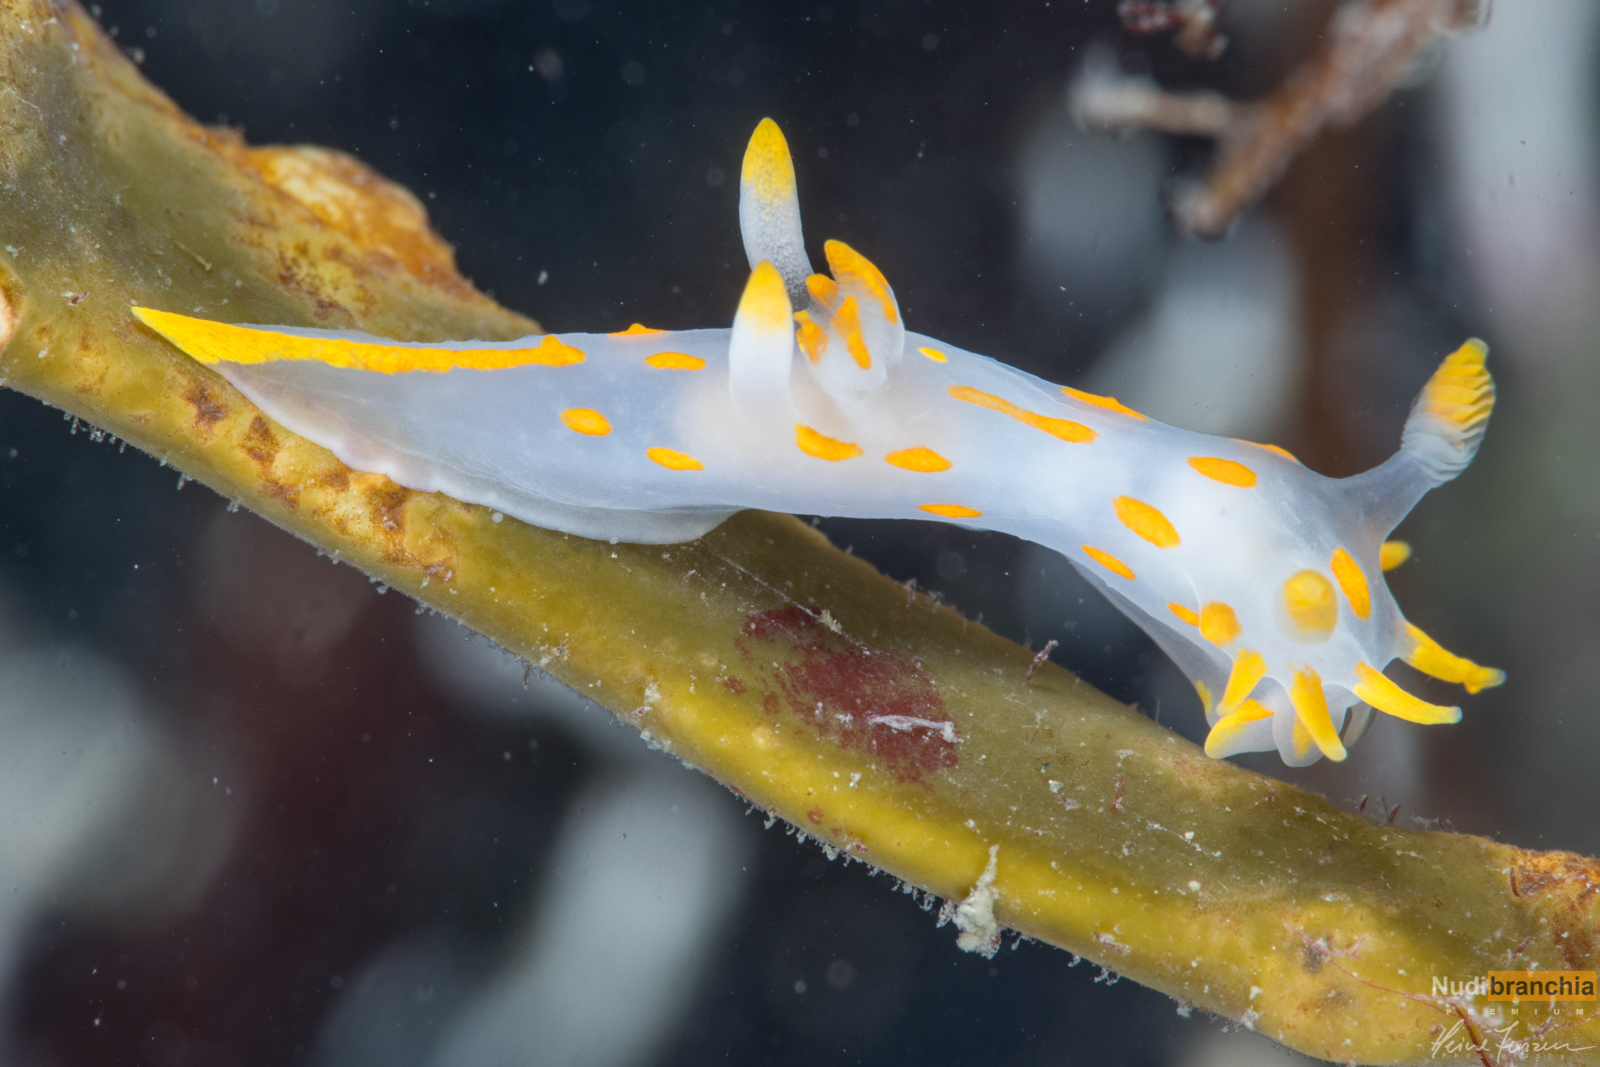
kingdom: Animalia
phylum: Mollusca
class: Gastropoda
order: Nudibranchia
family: Polyceridae
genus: Polycera
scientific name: Polycera quadrilineata
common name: Four-striped polycera
